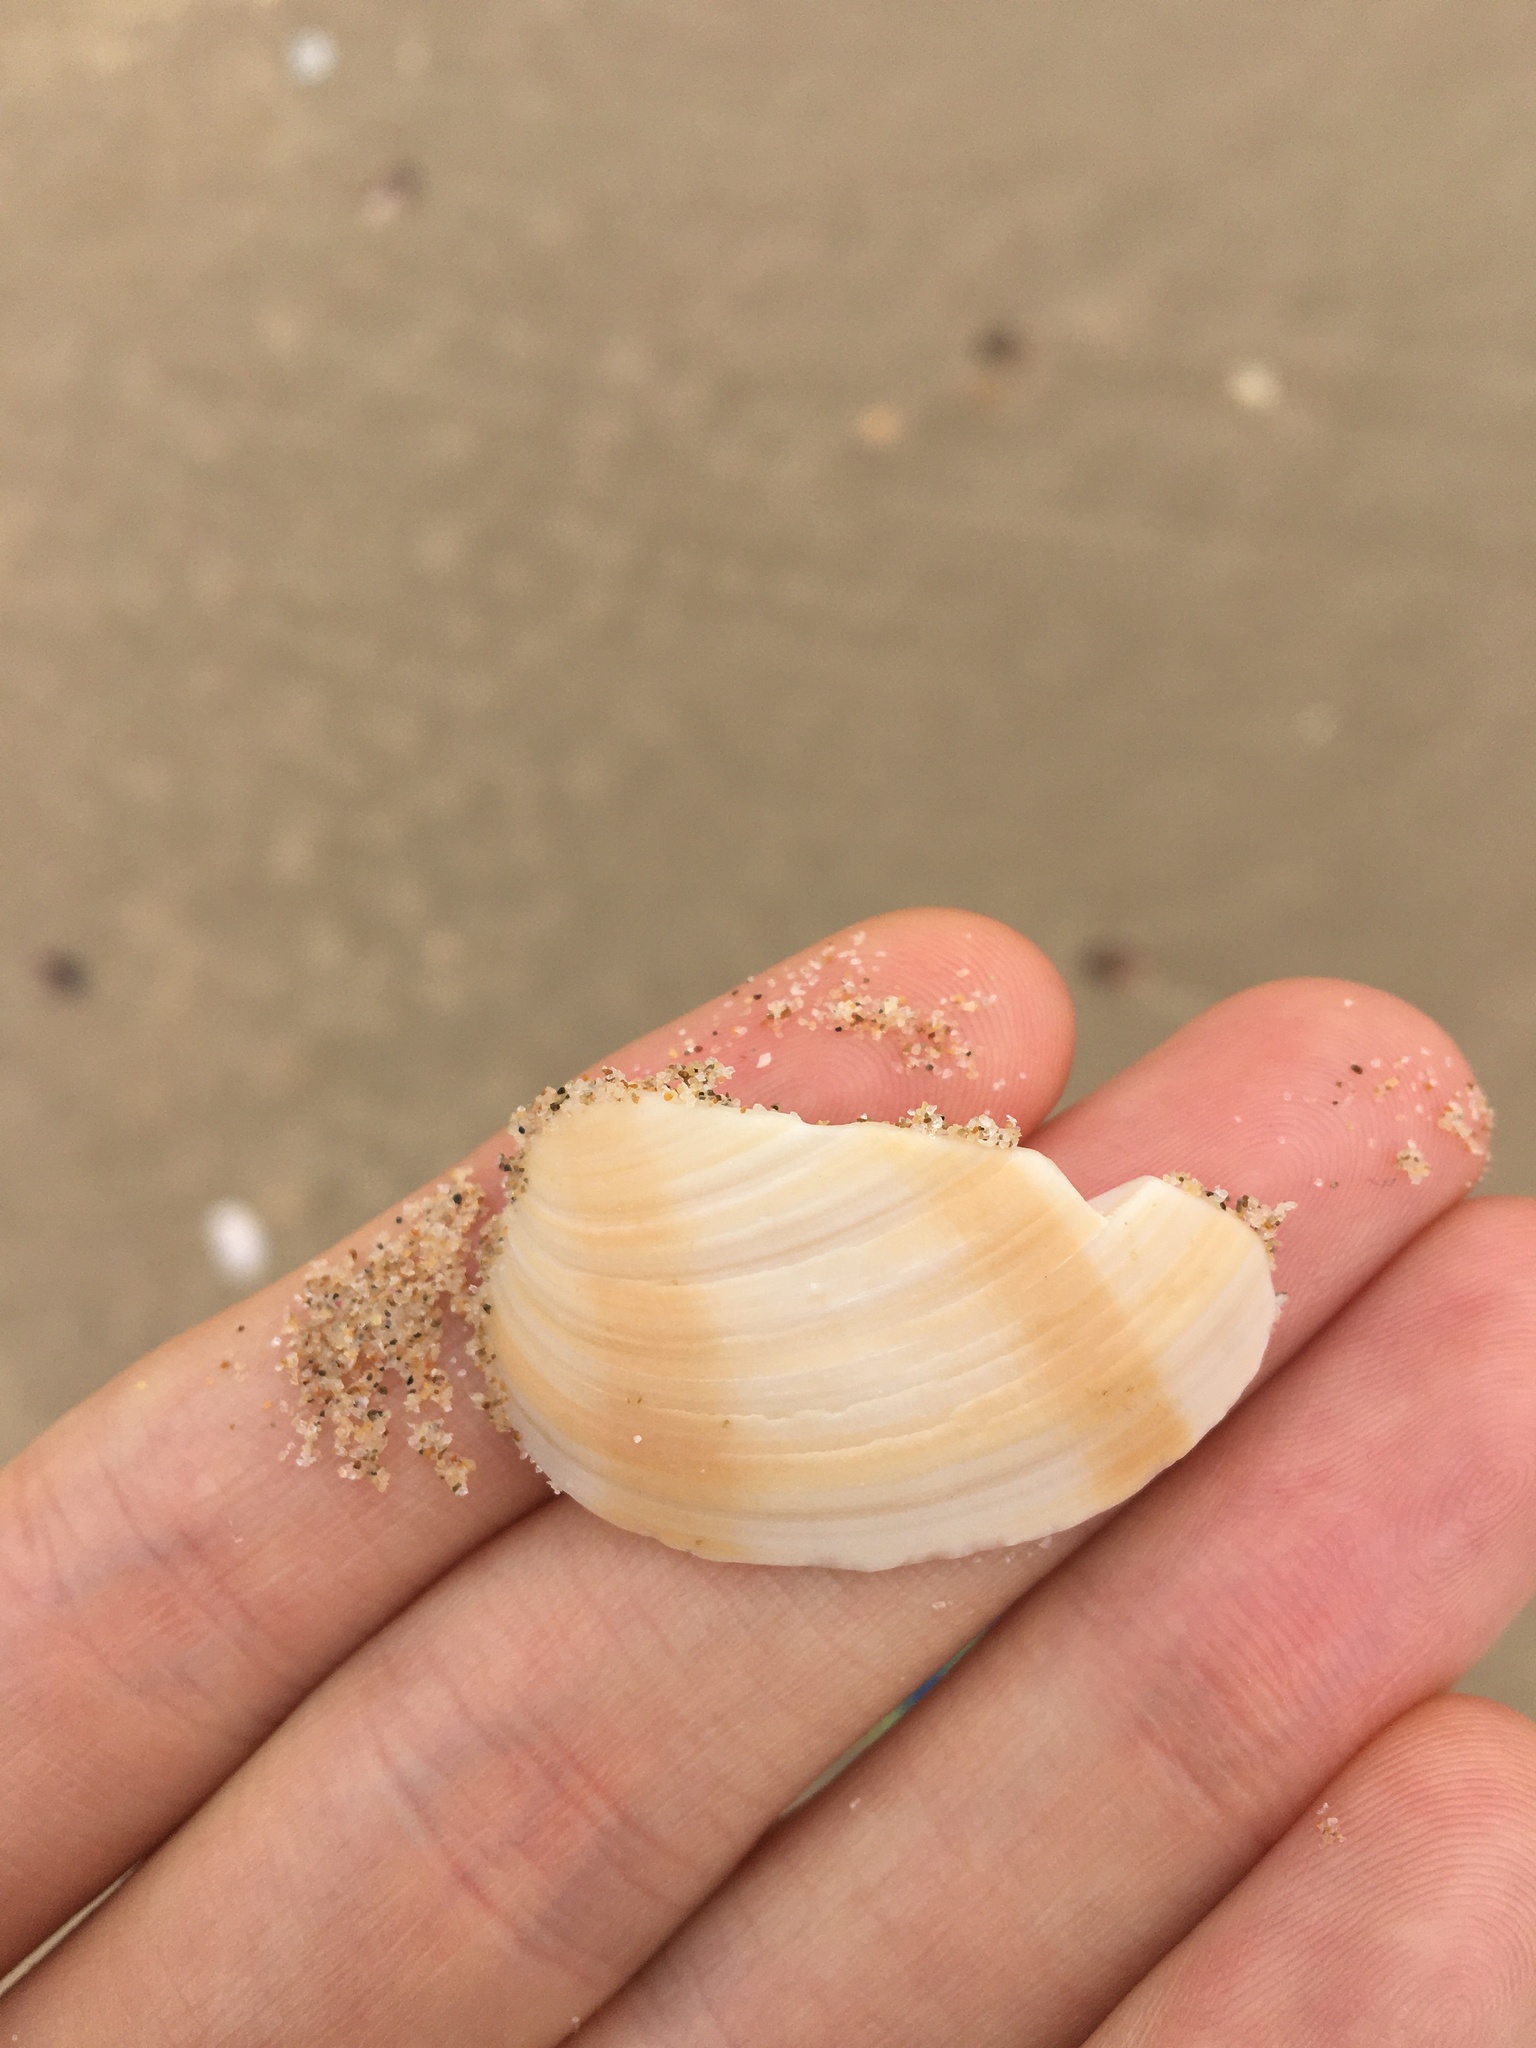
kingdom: Animalia
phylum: Mollusca
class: Bivalvia
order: Venerida
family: Veneridae
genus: Bassina
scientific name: Bassina pachyphylla
